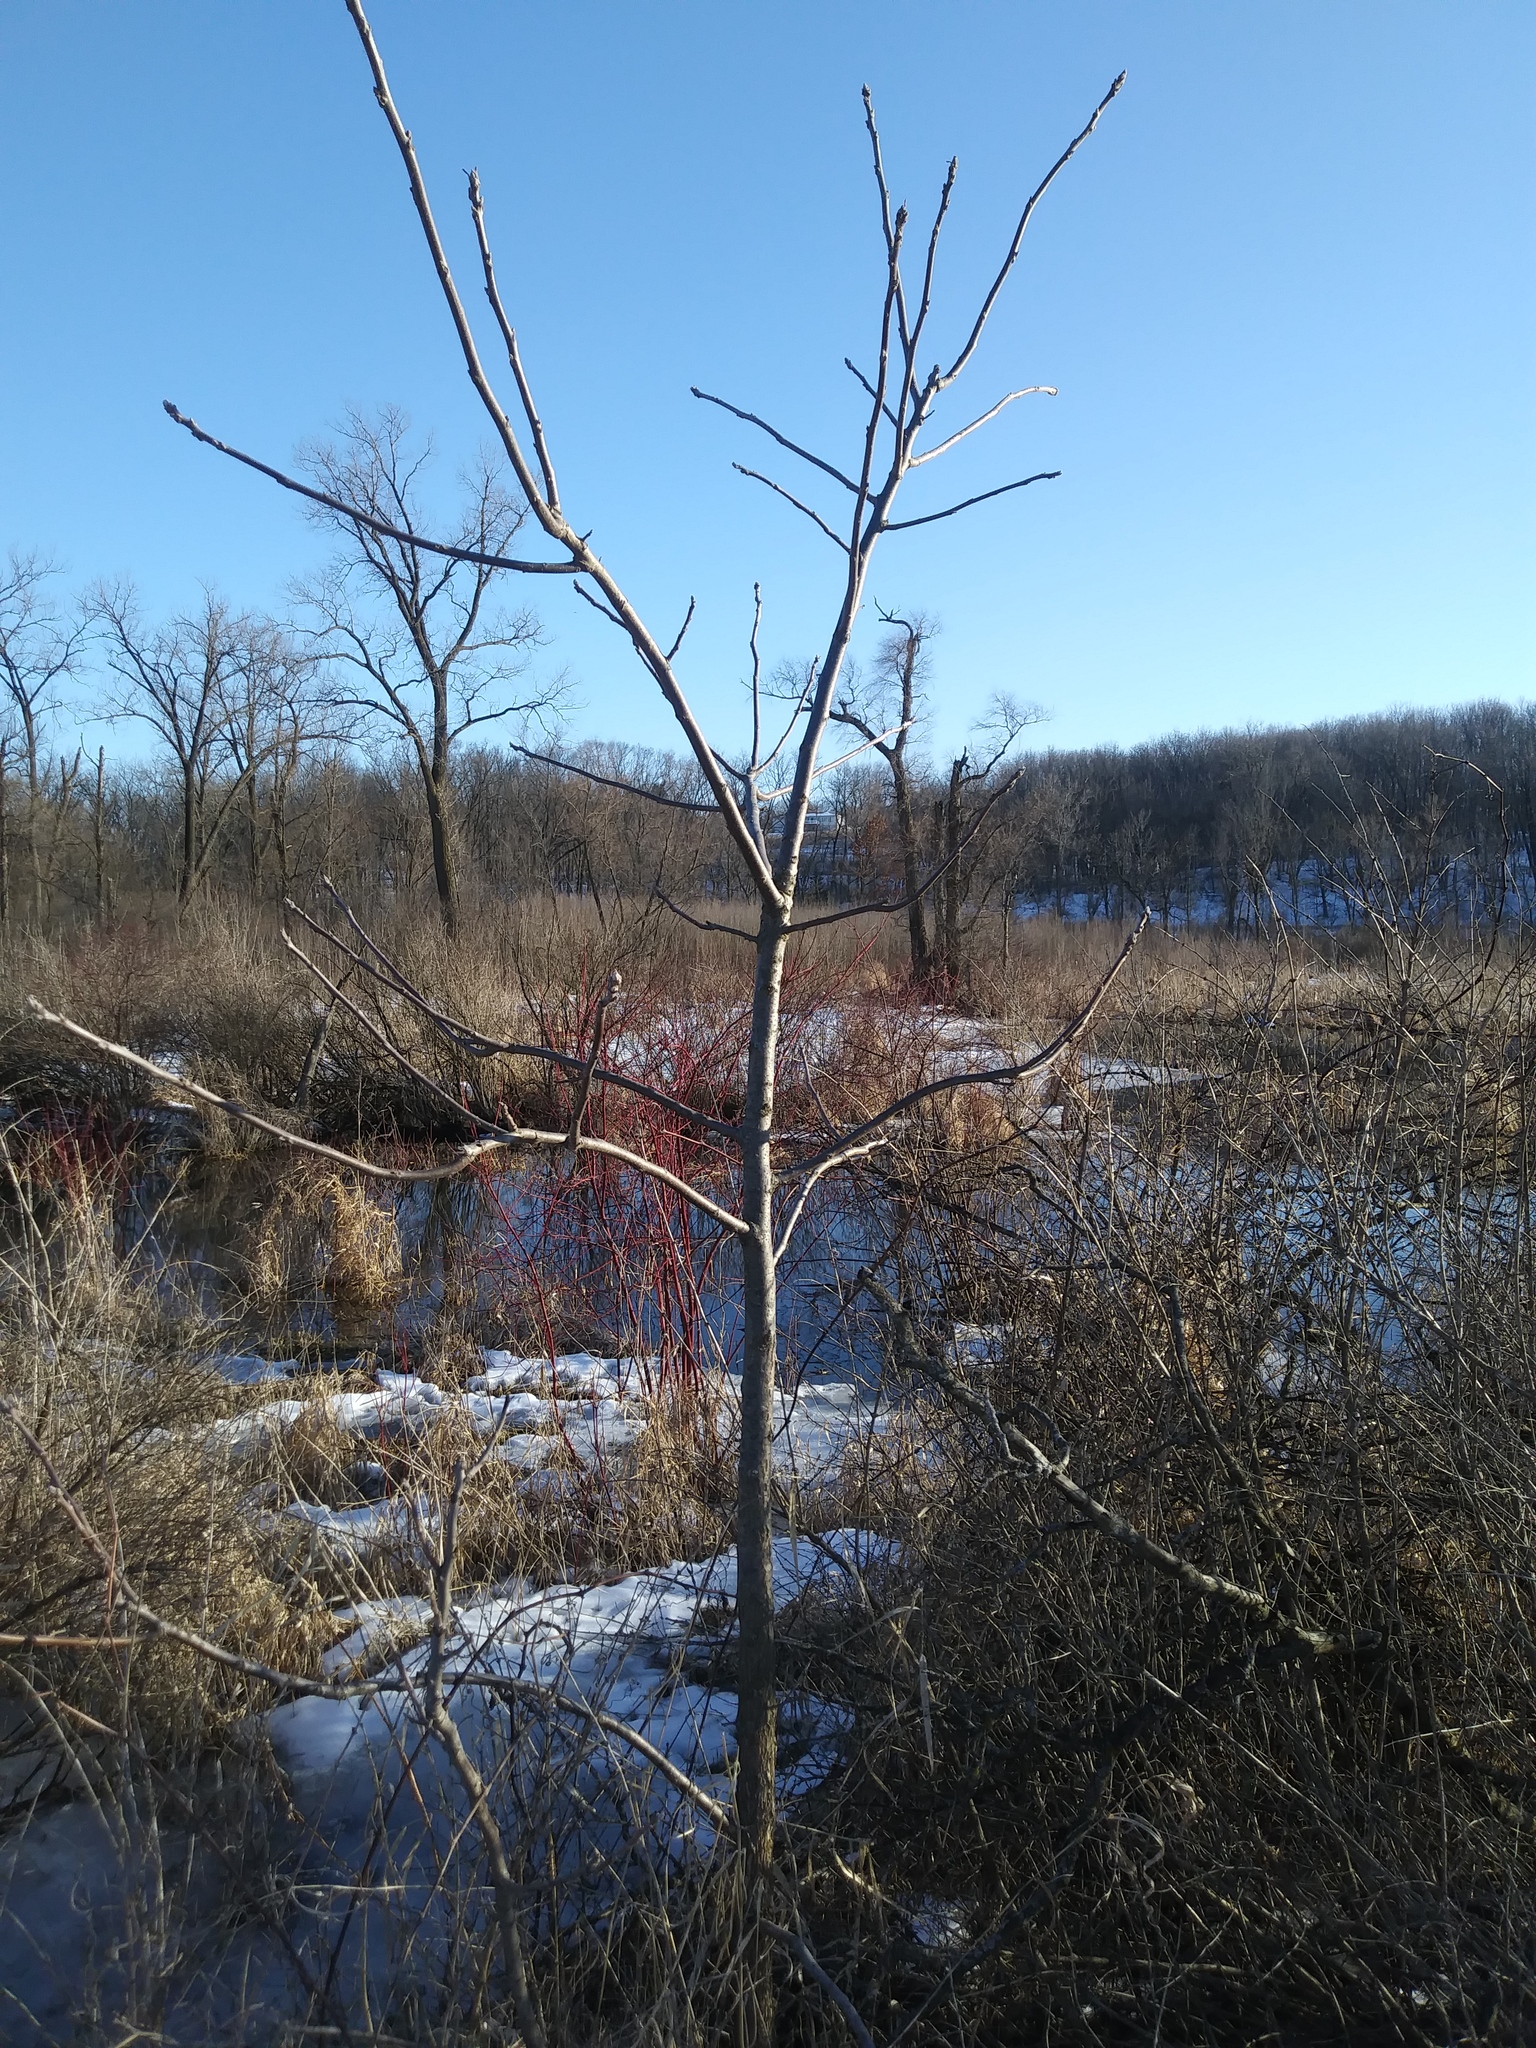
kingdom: Plantae
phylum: Tracheophyta
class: Magnoliopsida
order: Fagales
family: Juglandaceae
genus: Juglans
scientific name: Juglans nigra
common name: Black walnut
